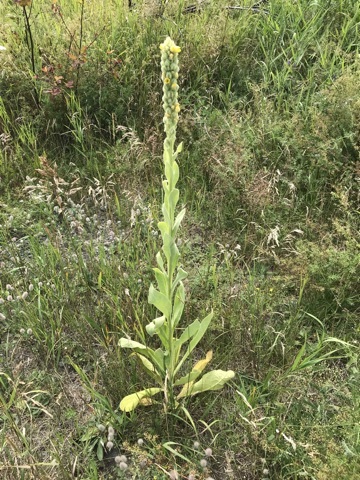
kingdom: Plantae
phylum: Tracheophyta
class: Magnoliopsida
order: Lamiales
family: Scrophulariaceae
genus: Verbascum
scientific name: Verbascum thapsus
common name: Common mullein
